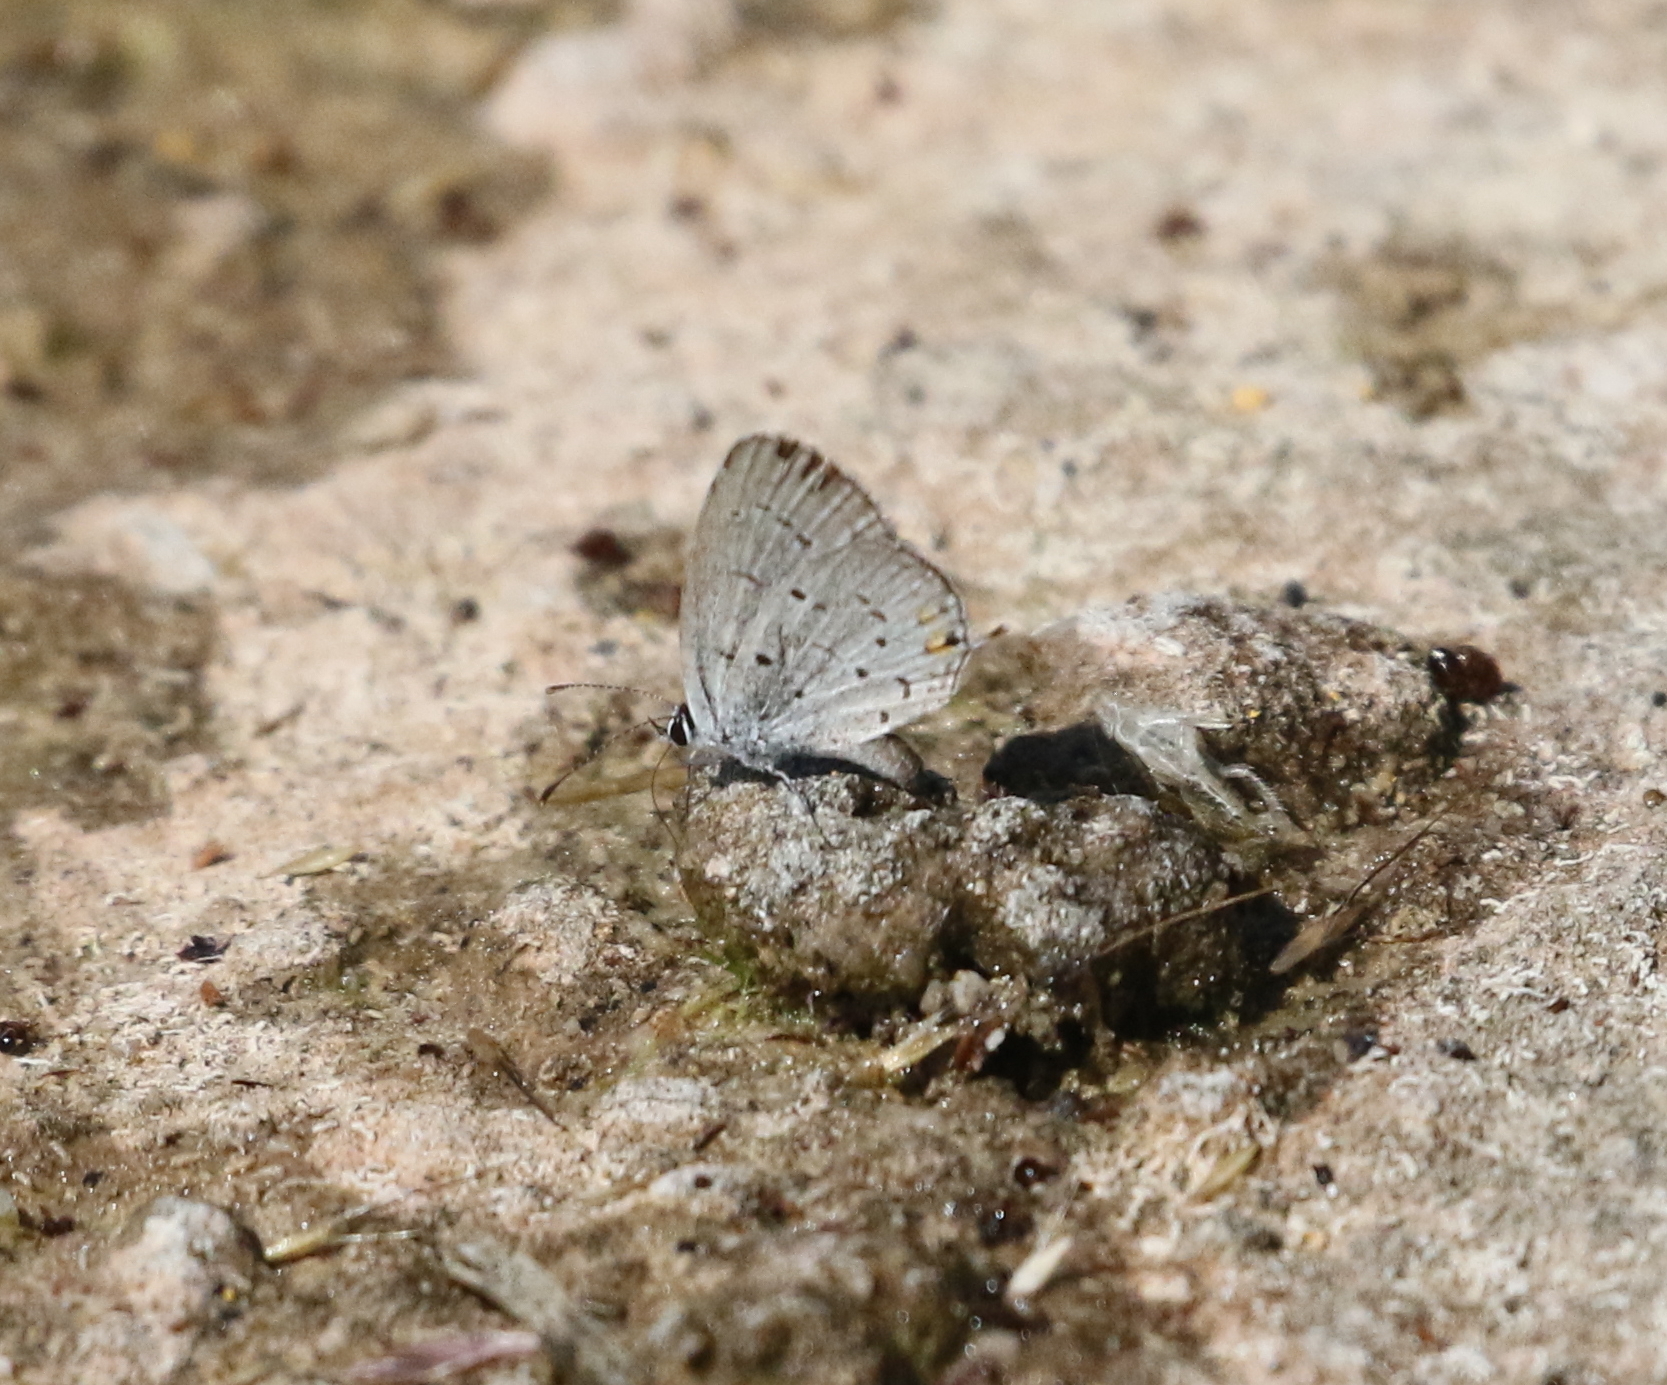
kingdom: Animalia
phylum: Arthropoda
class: Insecta
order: Lepidoptera
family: Lycaenidae
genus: Elkalyce
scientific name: Elkalyce comyntas
